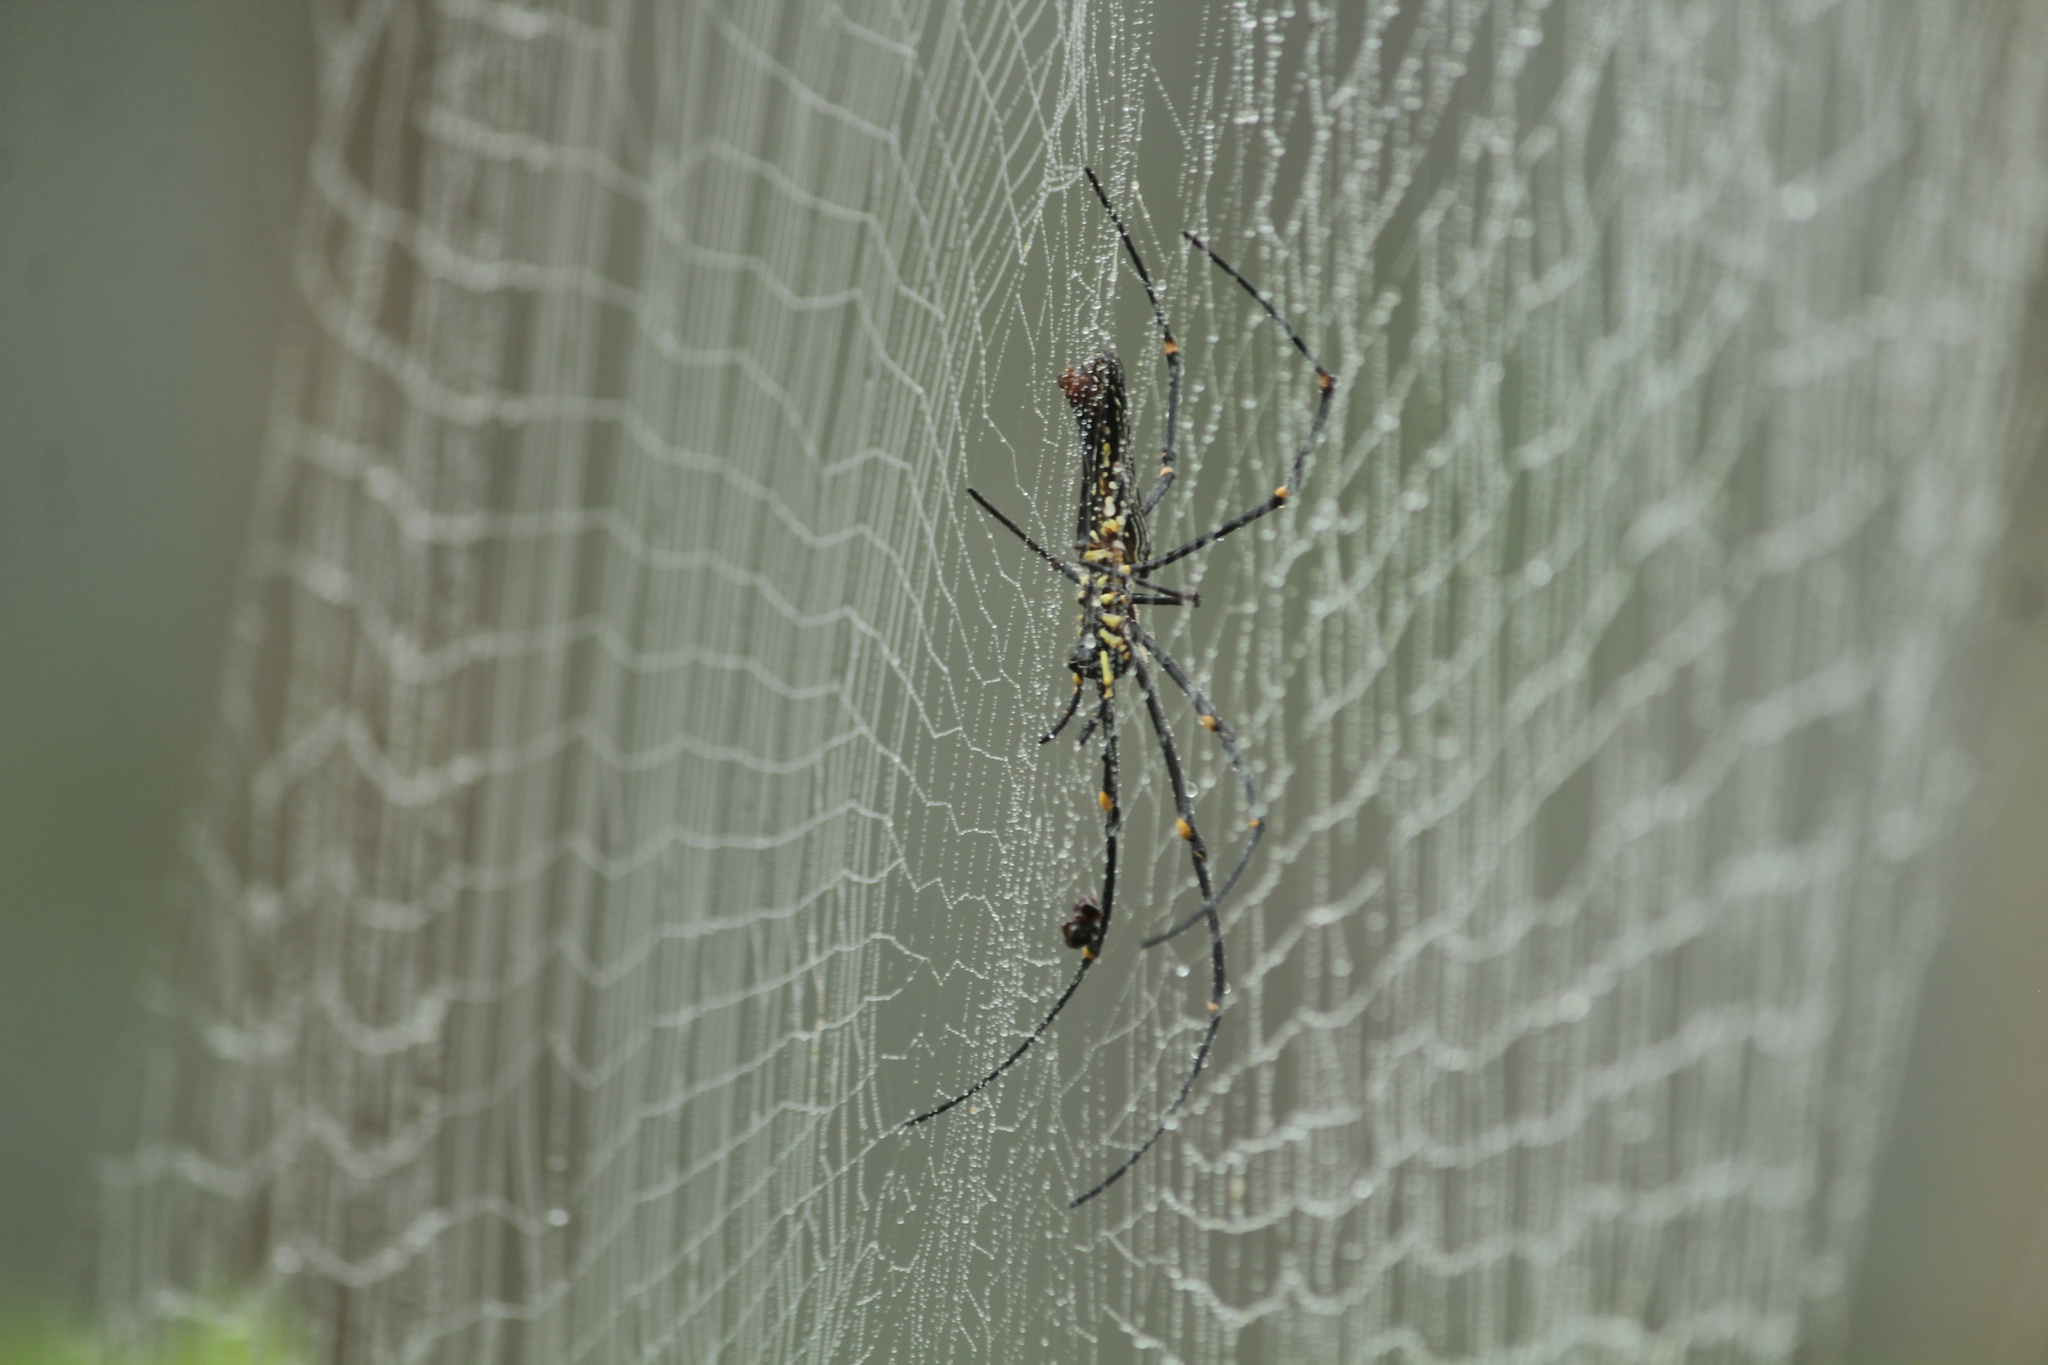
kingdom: Animalia
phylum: Arthropoda
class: Arachnida
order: Araneae
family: Araneidae
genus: Nephila
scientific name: Nephila pilipes
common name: Giant golden orb weaver
